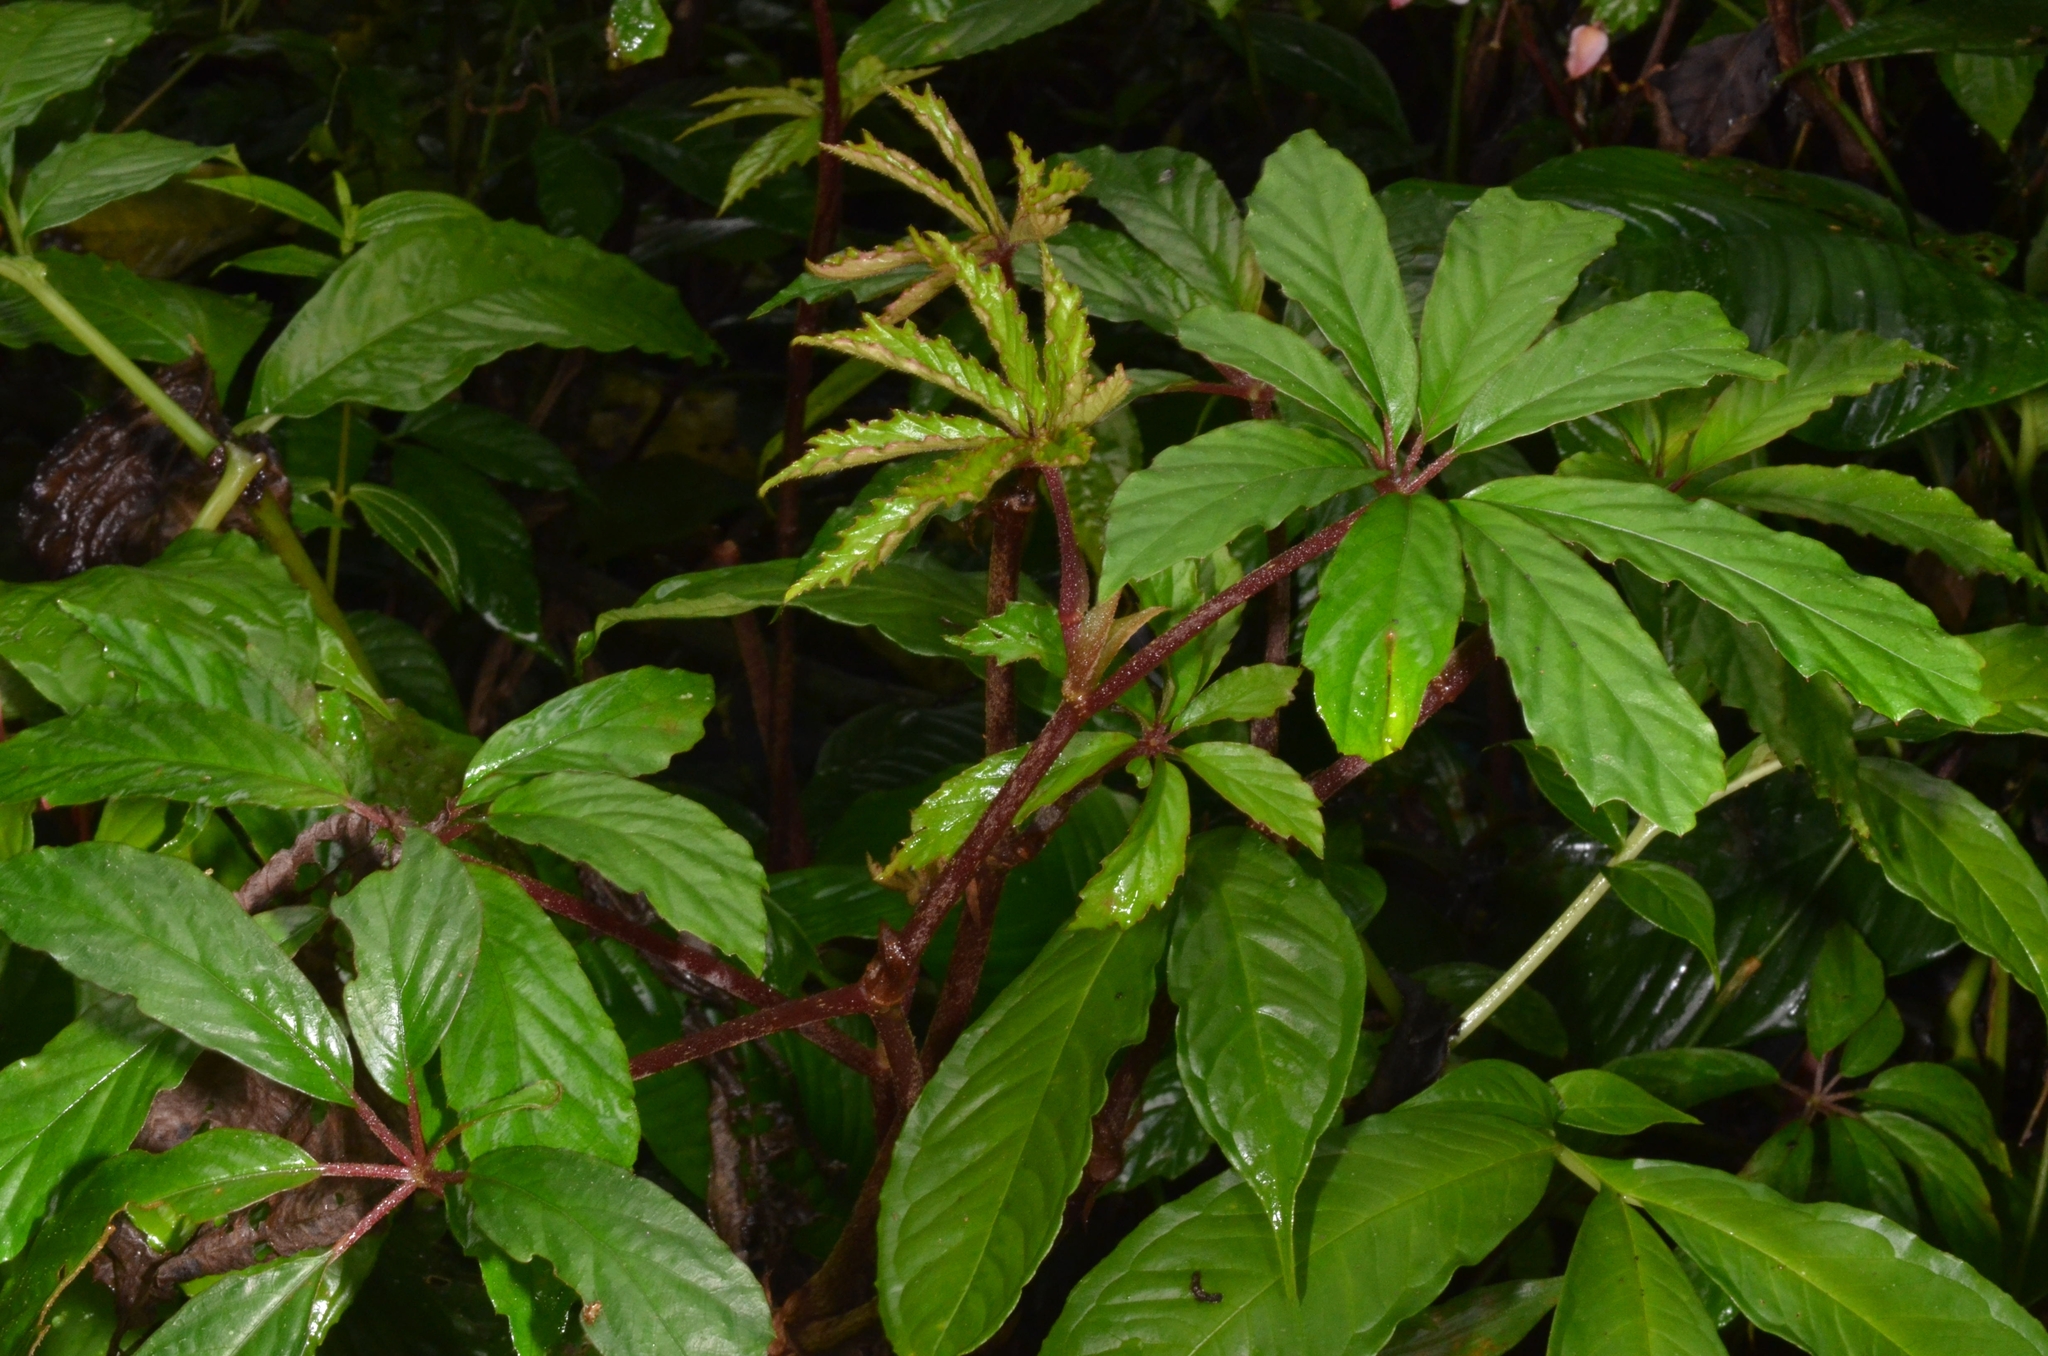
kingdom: Plantae
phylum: Tracheophyta
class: Magnoliopsida
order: Cucurbitales
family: Begoniaceae
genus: Begonia
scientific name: Begonia hemsleyana
